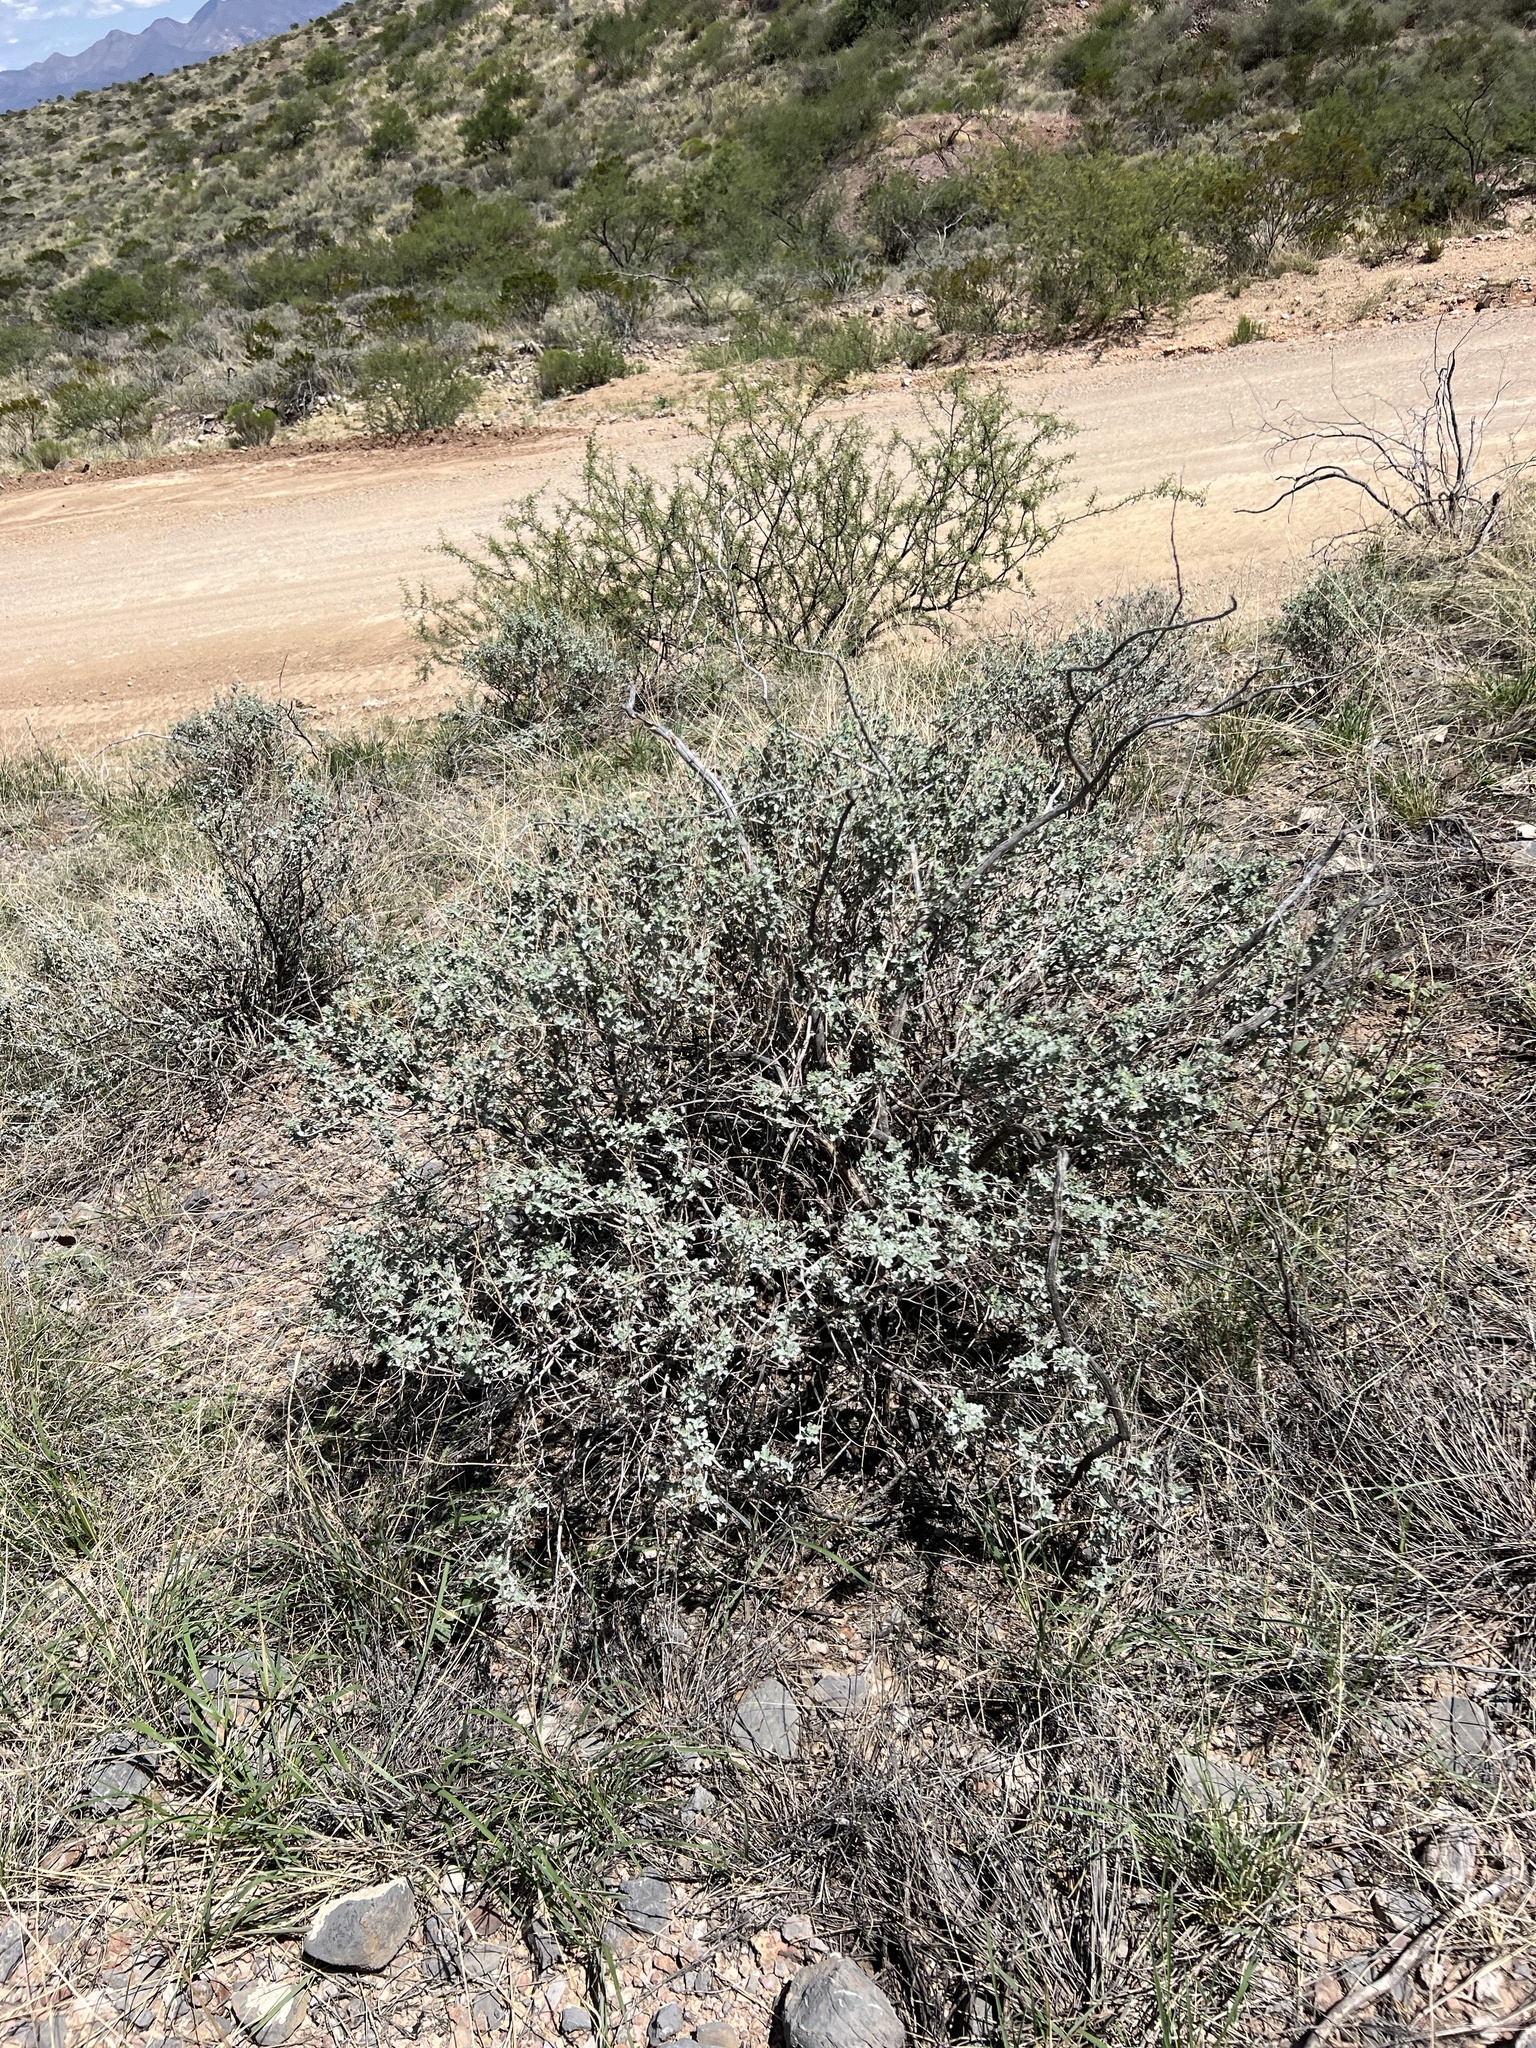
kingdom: Plantae
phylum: Tracheophyta
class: Magnoliopsida
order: Asterales
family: Asteraceae
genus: Parthenium
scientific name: Parthenium incanum
